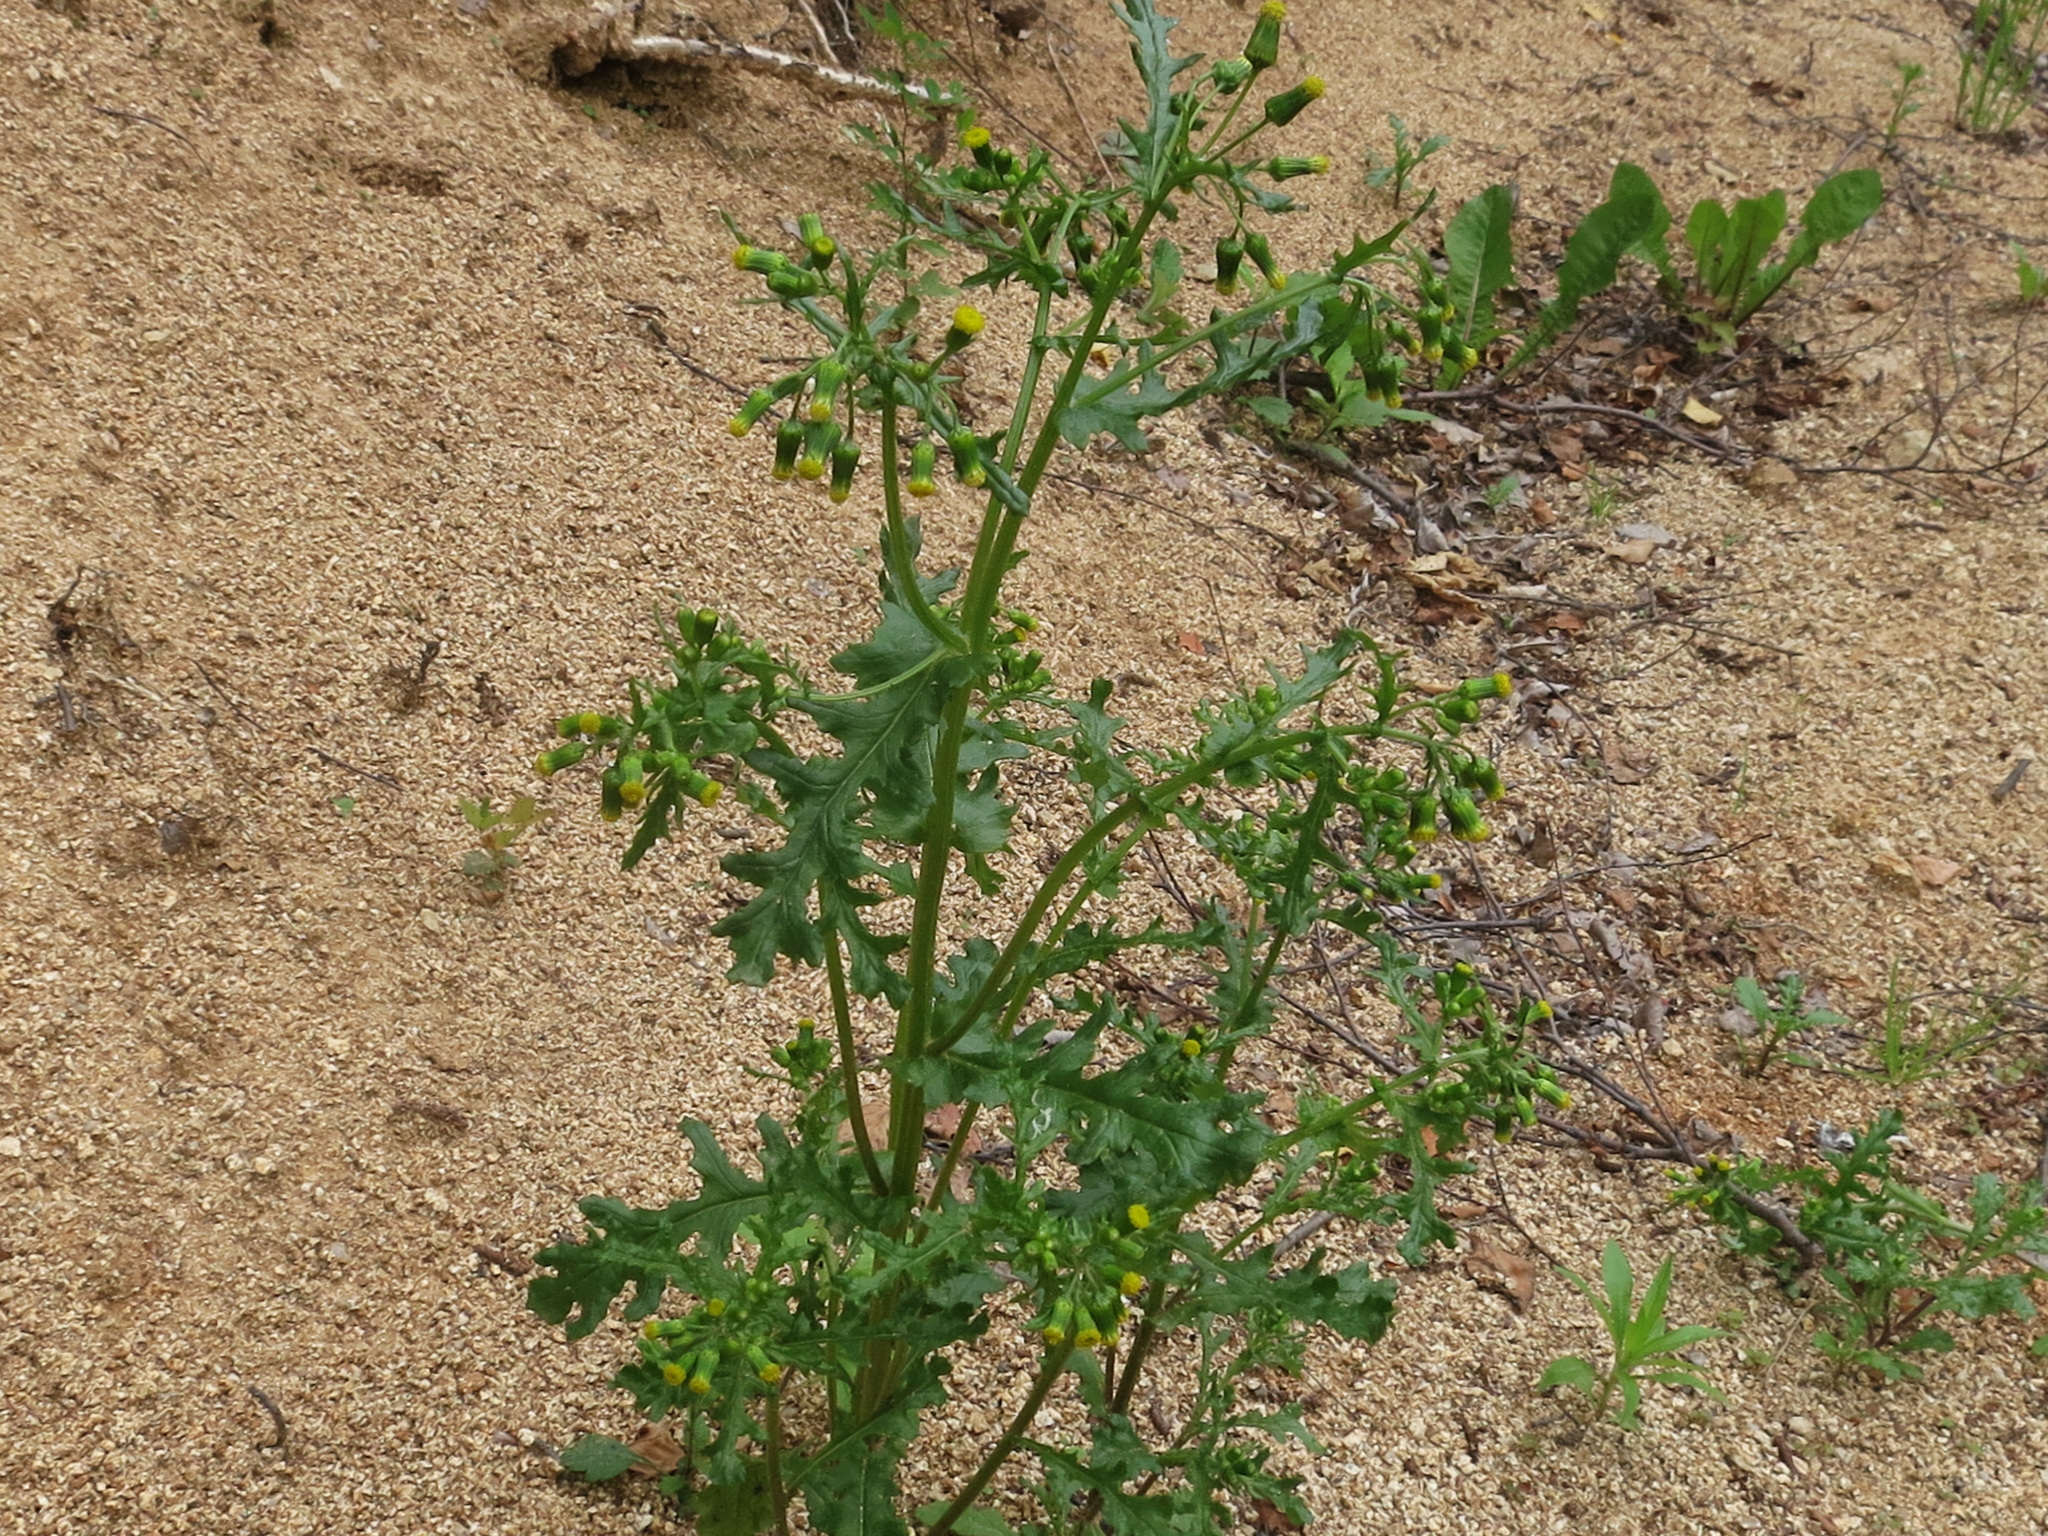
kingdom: Plantae
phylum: Tracheophyta
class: Magnoliopsida
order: Asterales
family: Asteraceae
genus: Senecio
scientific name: Senecio vulgaris
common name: Old-man-in-the-spring
